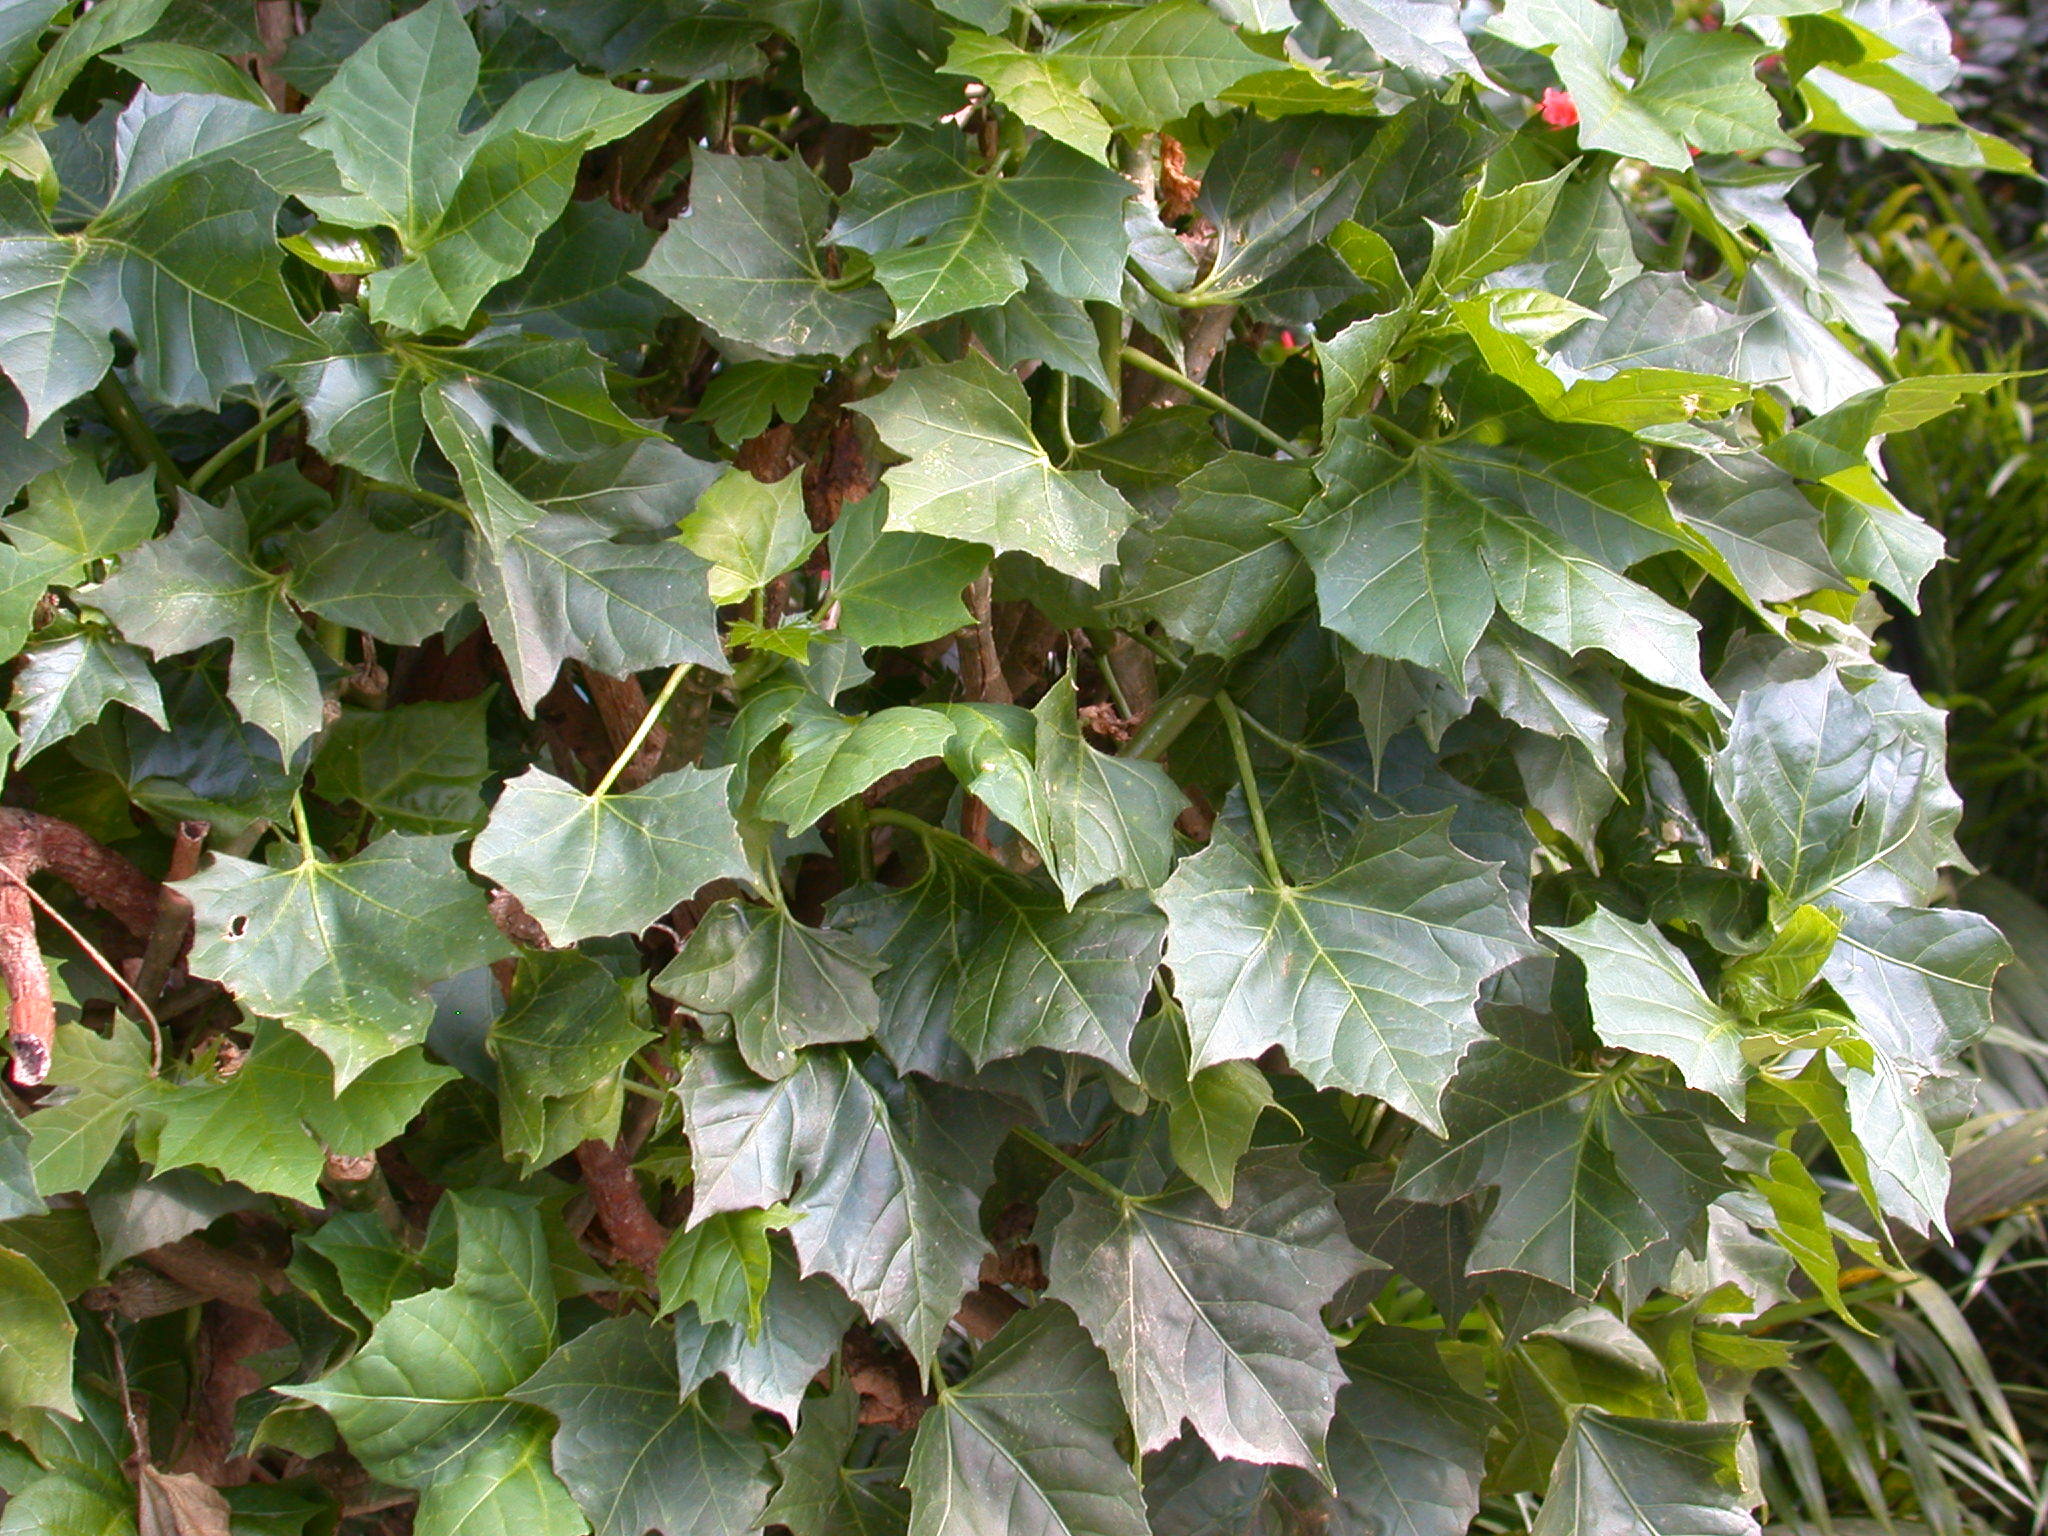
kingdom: Plantae
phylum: Tracheophyta
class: Magnoliopsida
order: Malpighiales
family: Euphorbiaceae
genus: Cnidoscolus
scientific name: Cnidoscolus aconitifolius
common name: Cabbage-star
